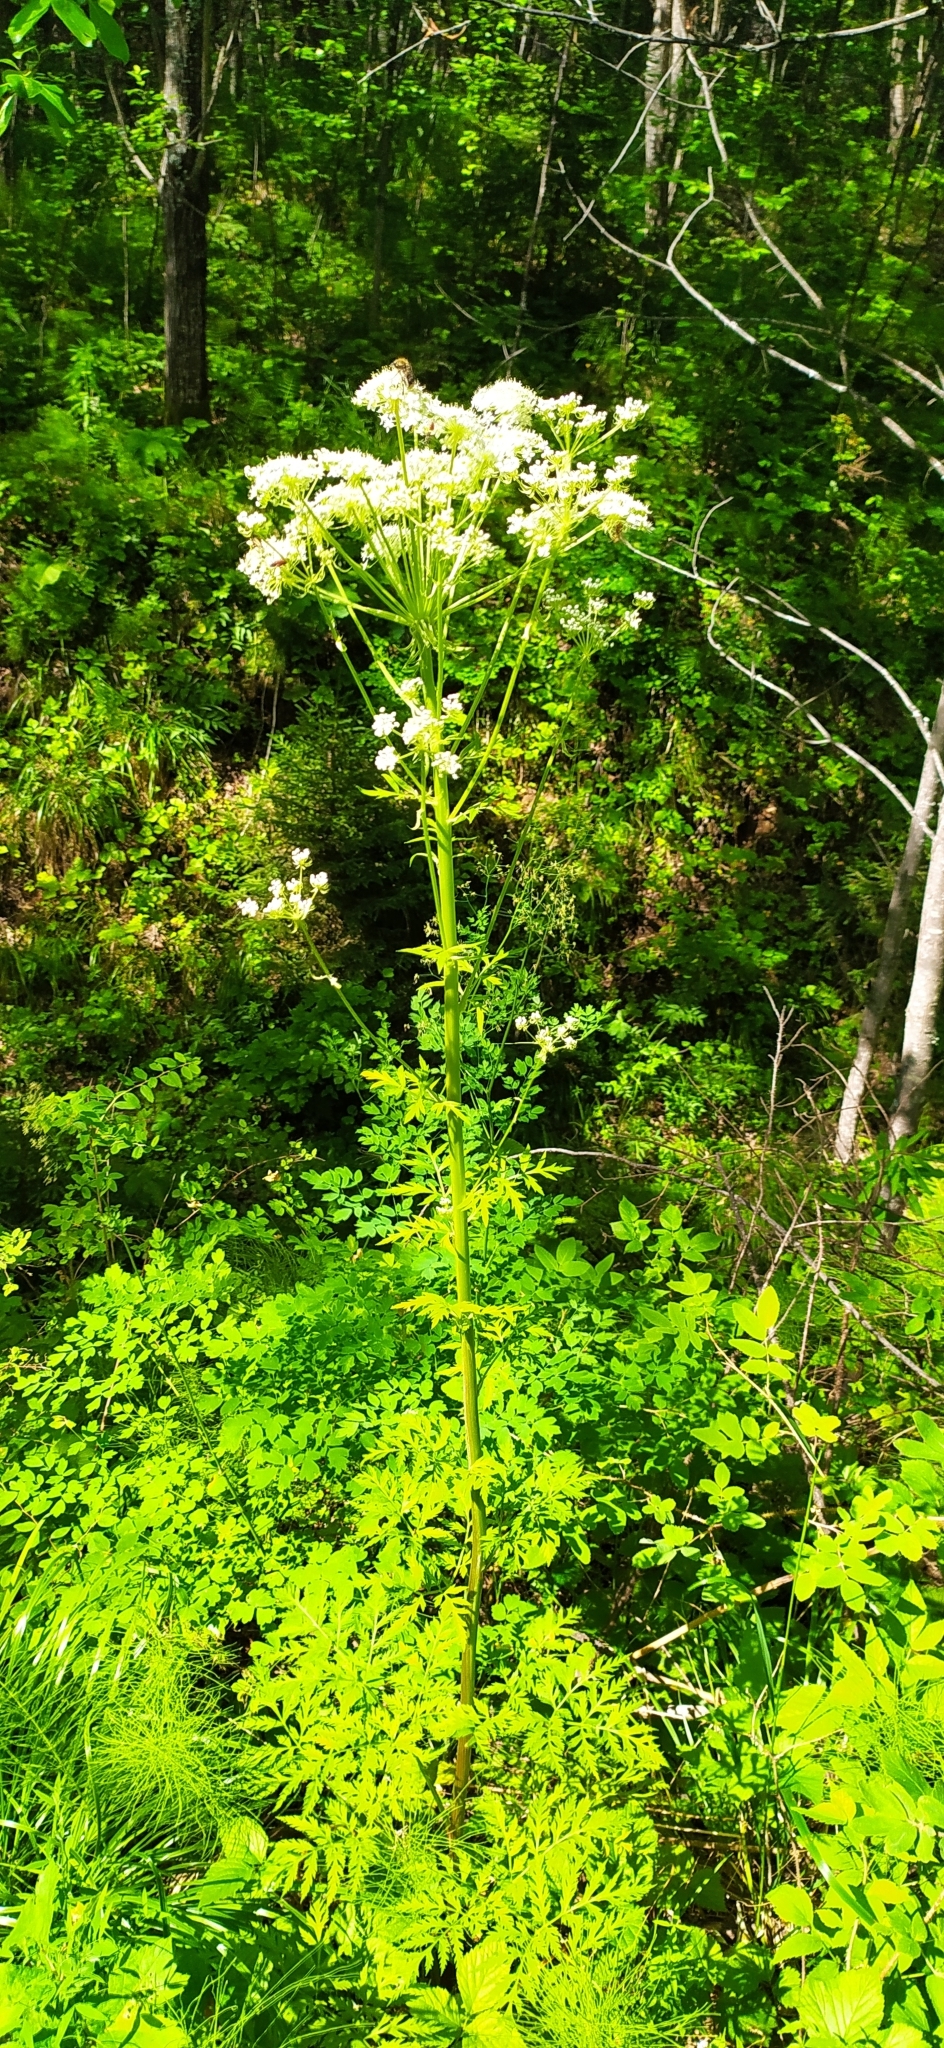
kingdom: Plantae
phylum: Tracheophyta
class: Magnoliopsida
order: Apiales
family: Apiaceae
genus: Pleurospermum
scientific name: Pleurospermum uralense
